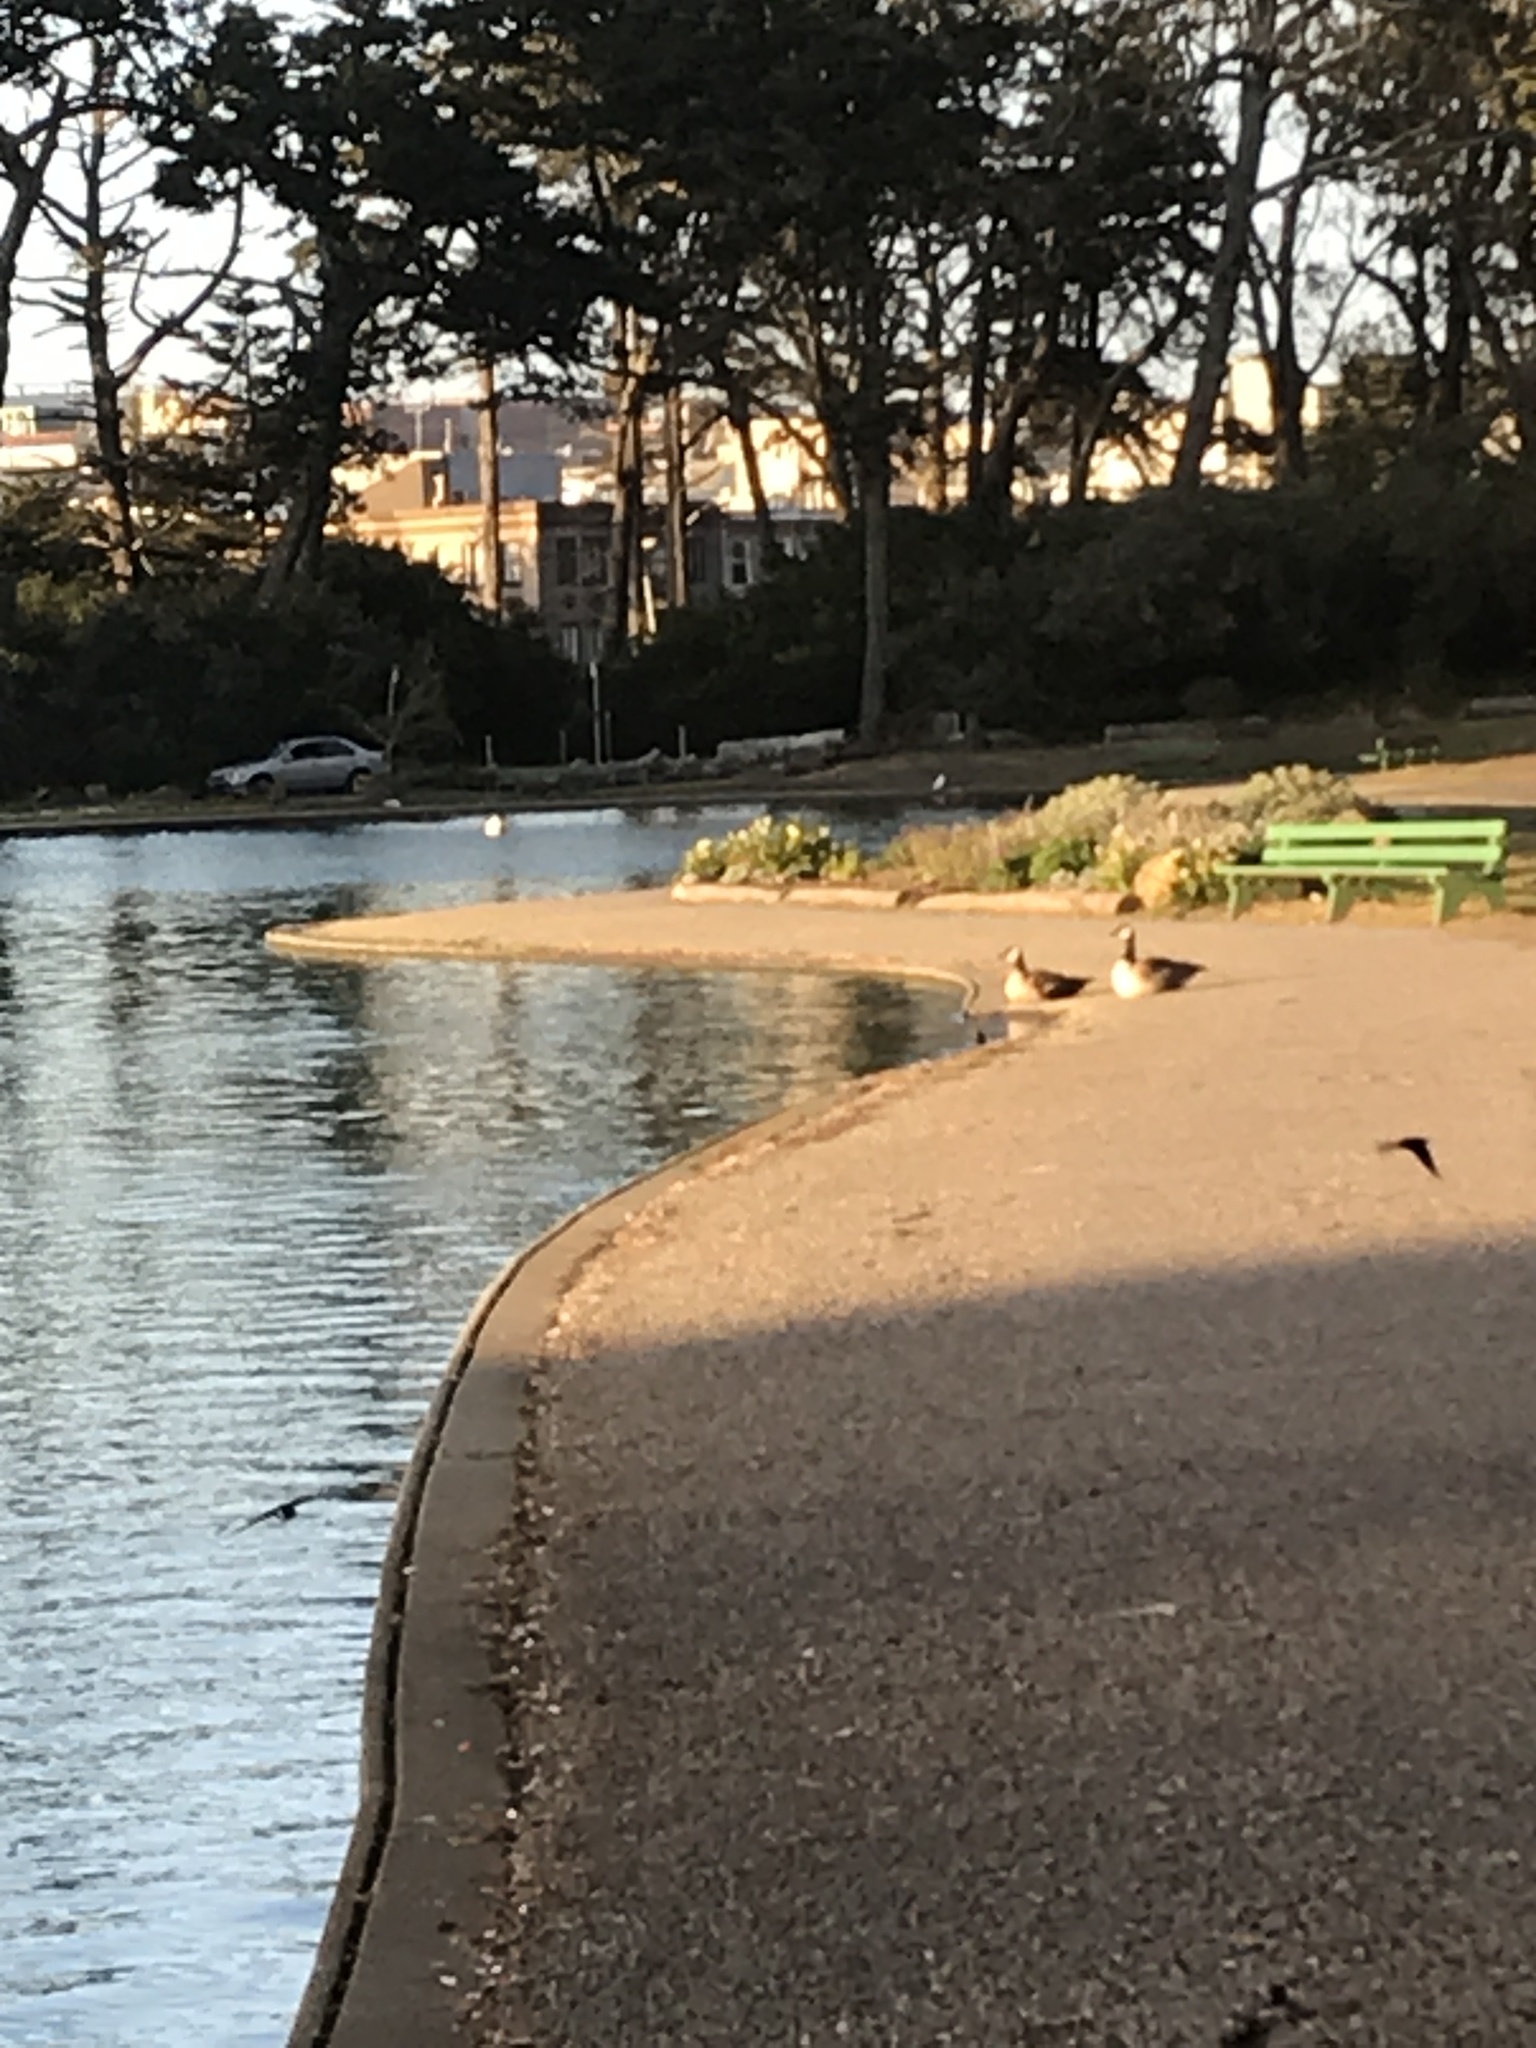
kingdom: Animalia
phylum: Chordata
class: Aves
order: Anseriformes
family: Anatidae
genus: Branta
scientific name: Branta canadensis
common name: Canada goose
